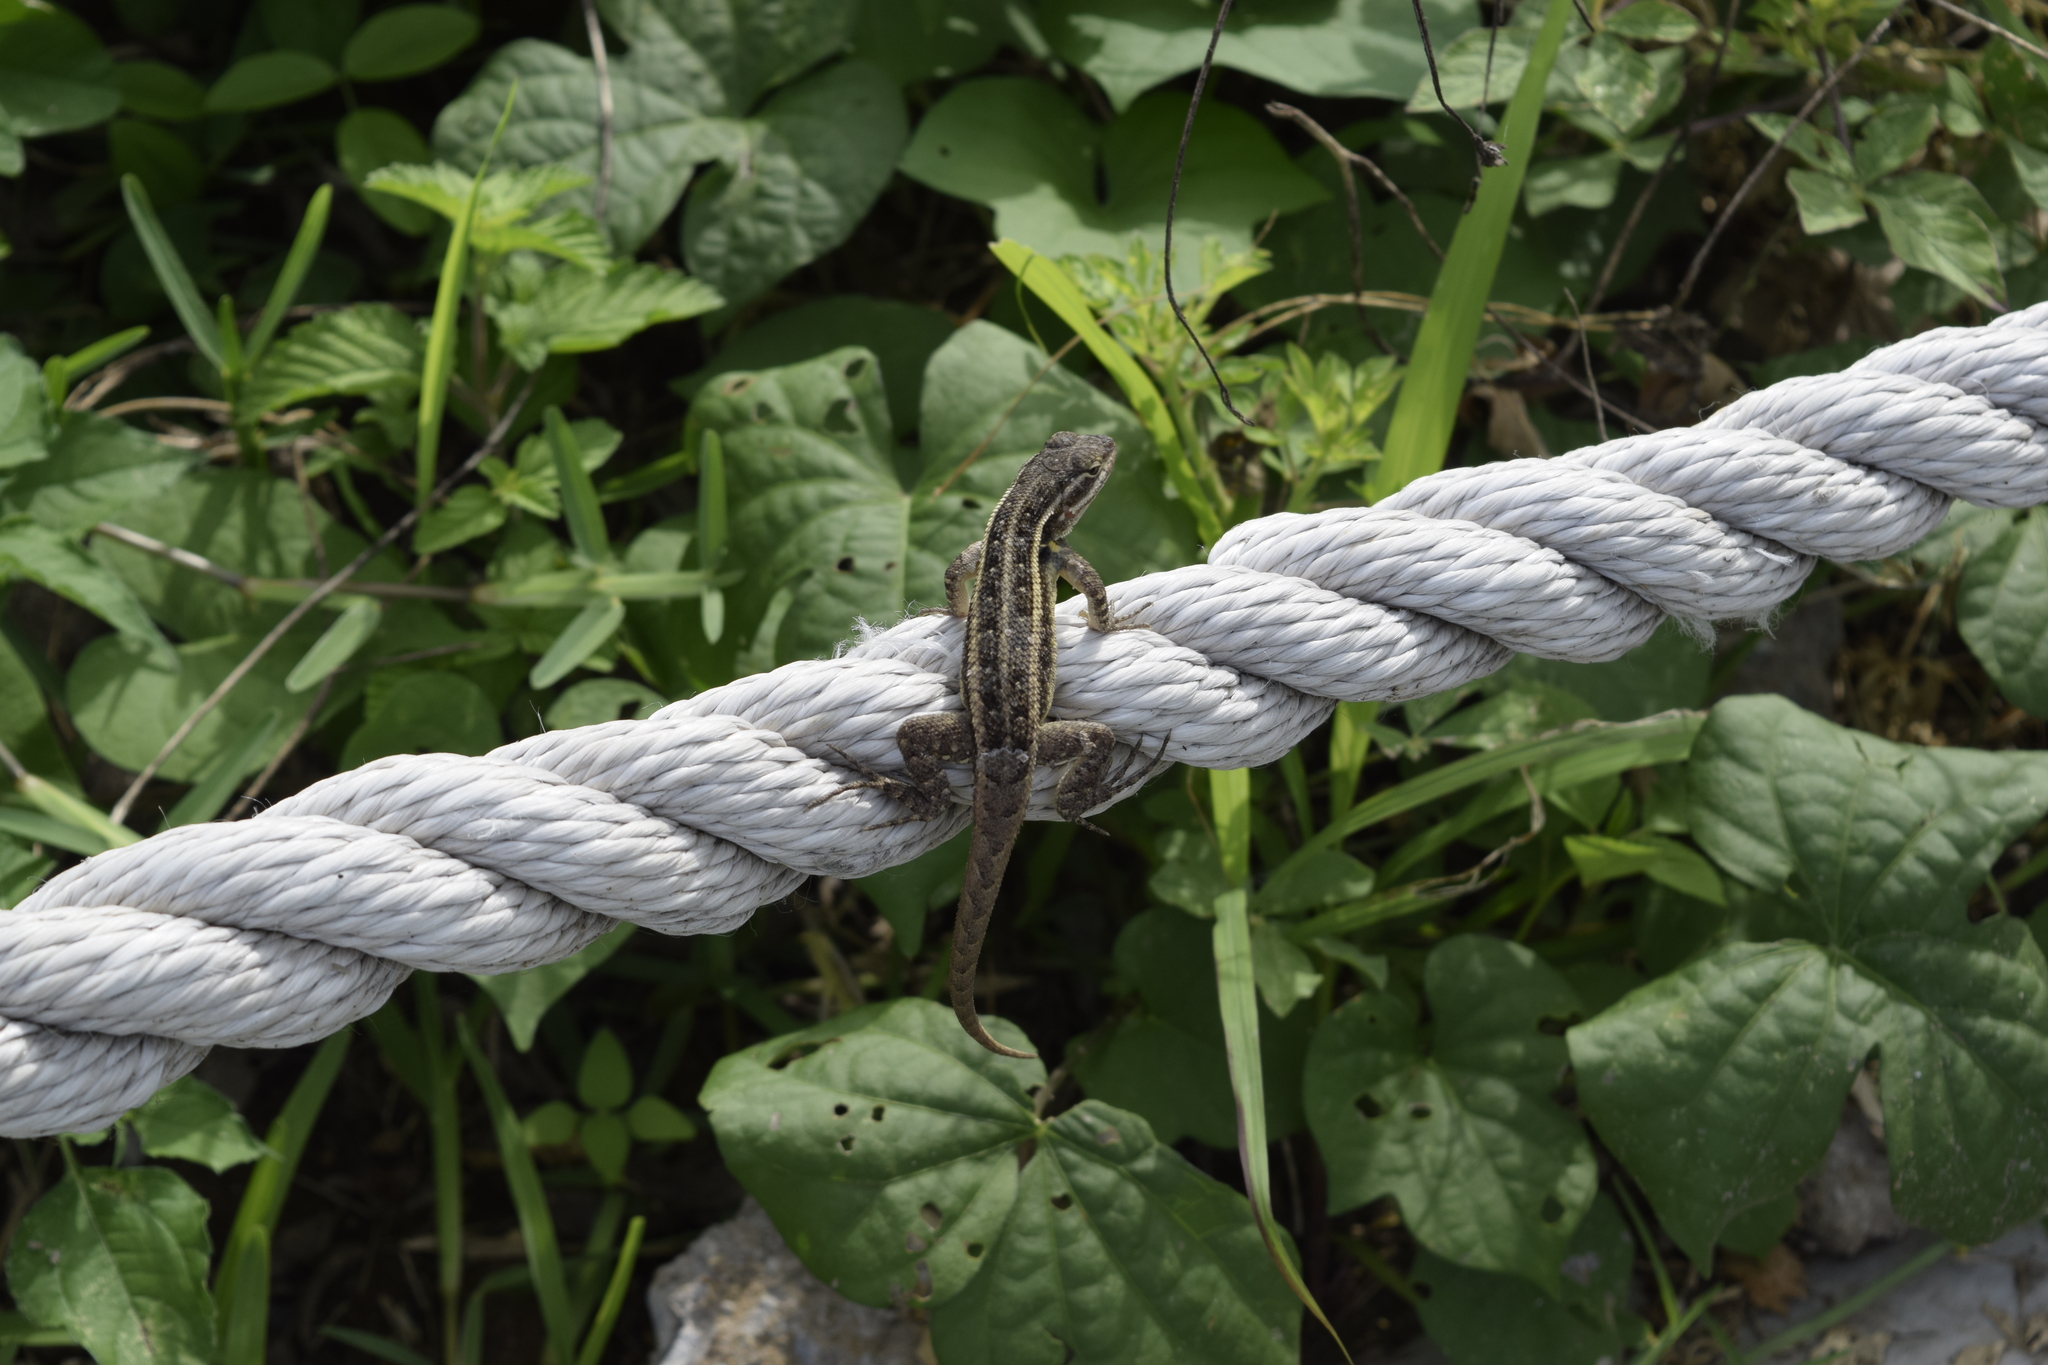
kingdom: Animalia
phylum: Chordata
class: Squamata
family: Phrynosomatidae
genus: Sceloporus
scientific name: Sceloporus variabilis
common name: Rosebelly lizard
